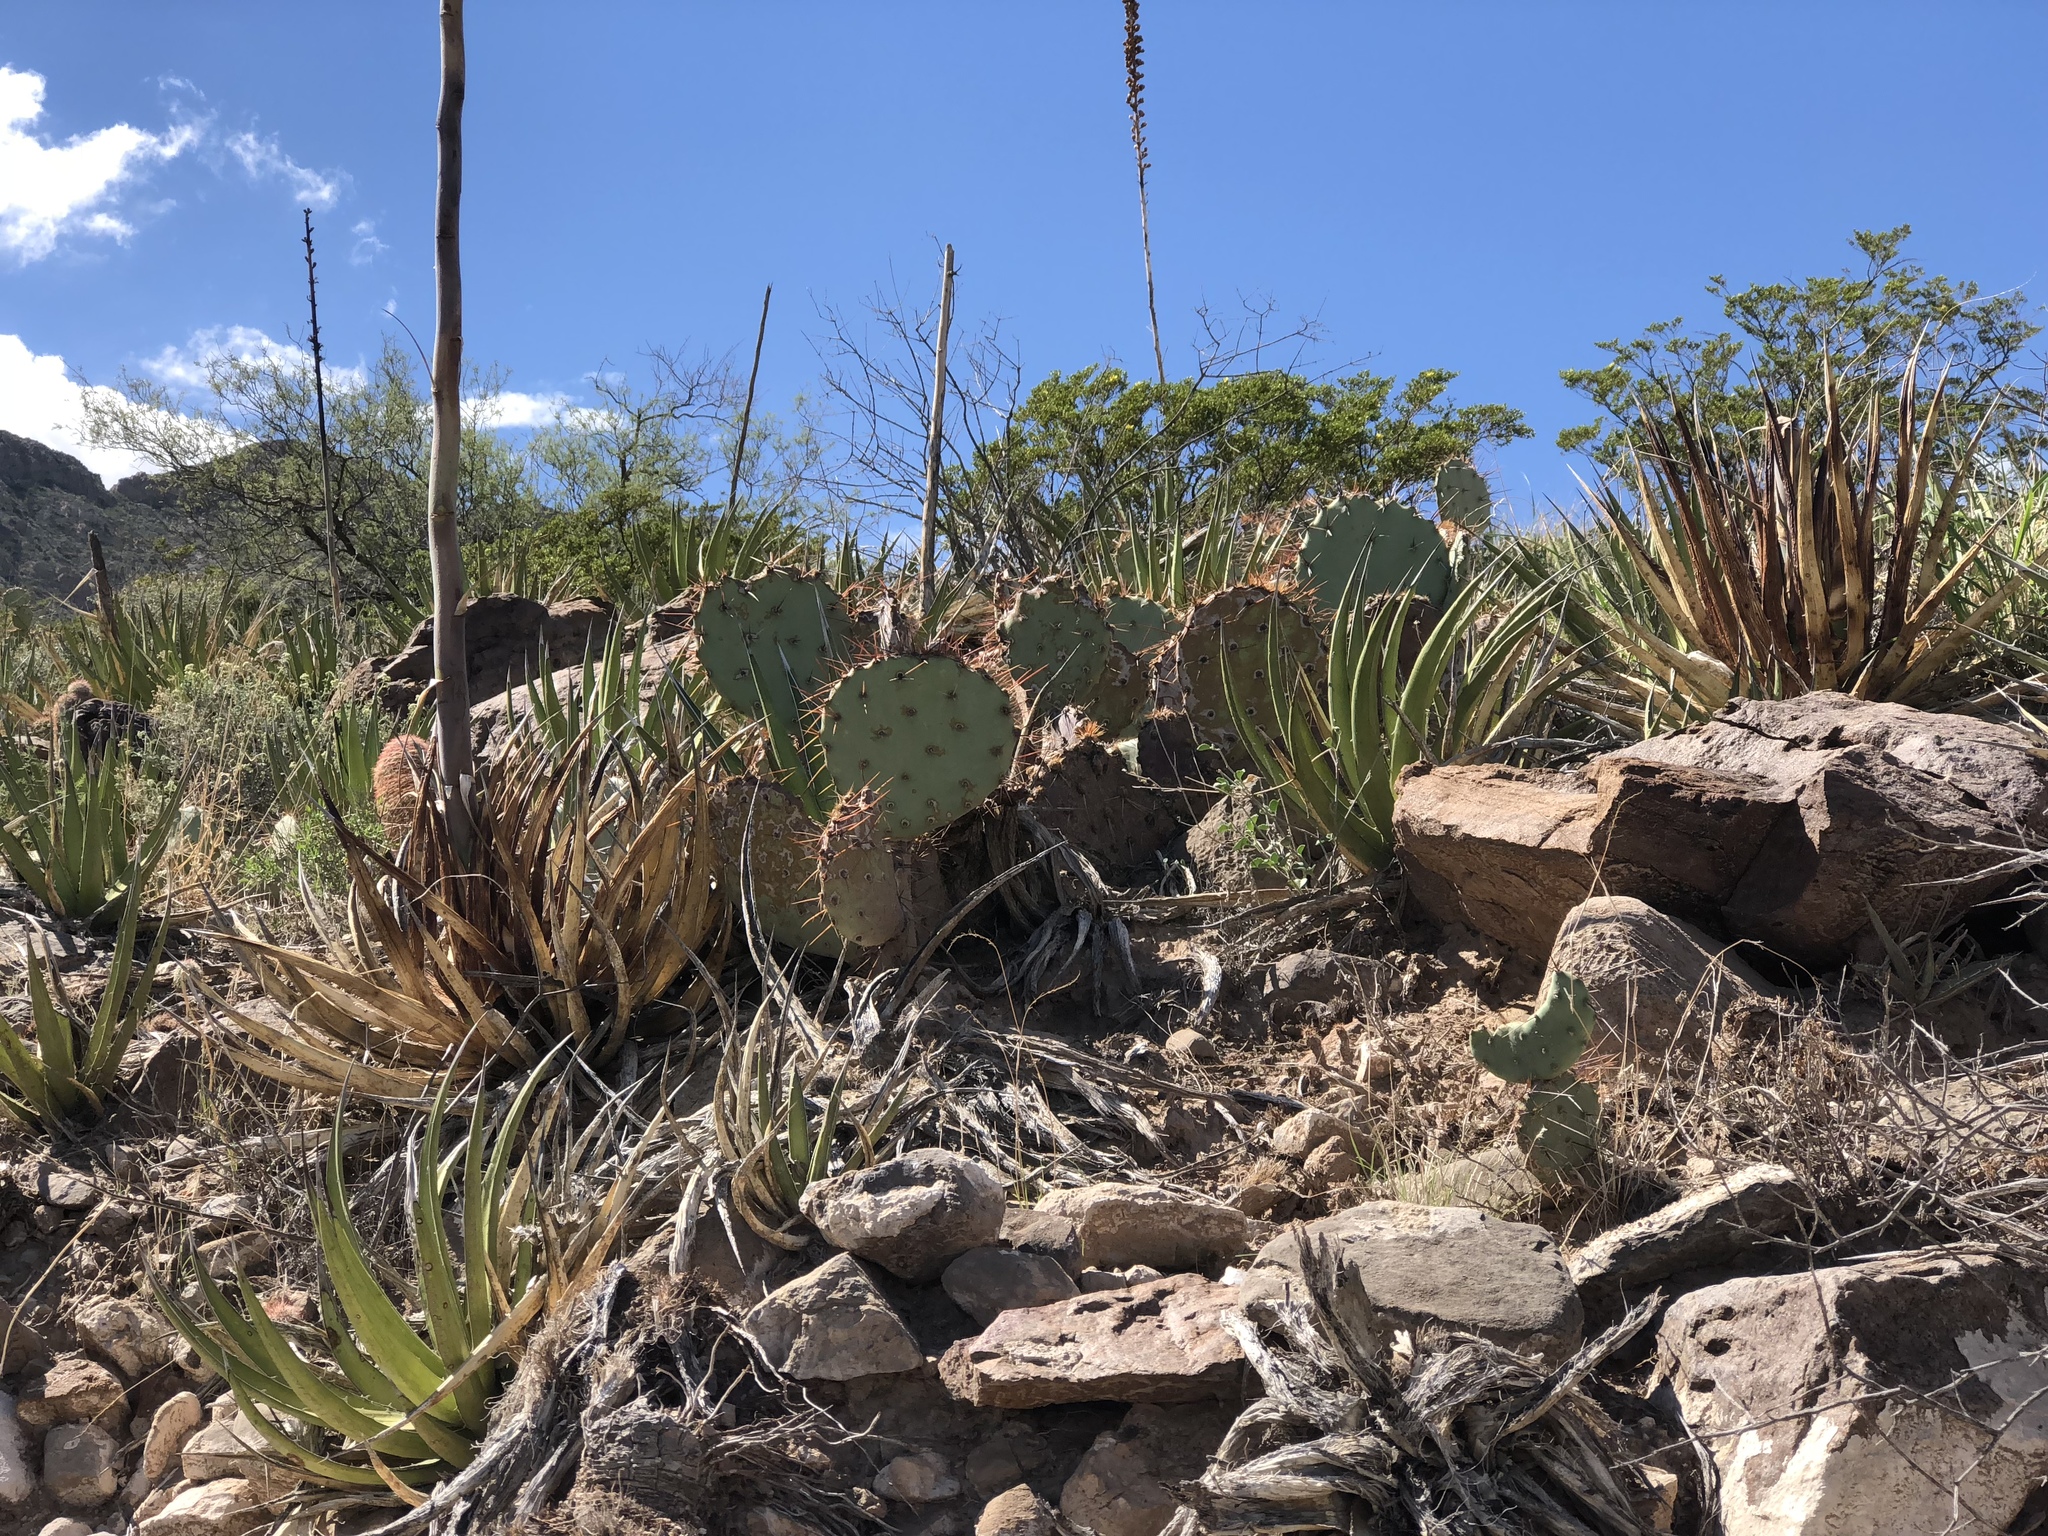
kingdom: Plantae
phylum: Tracheophyta
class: Magnoliopsida
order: Caryophyllales
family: Cactaceae
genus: Opuntia
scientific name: Opuntia phaeacantha
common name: New mexico prickly-pear
